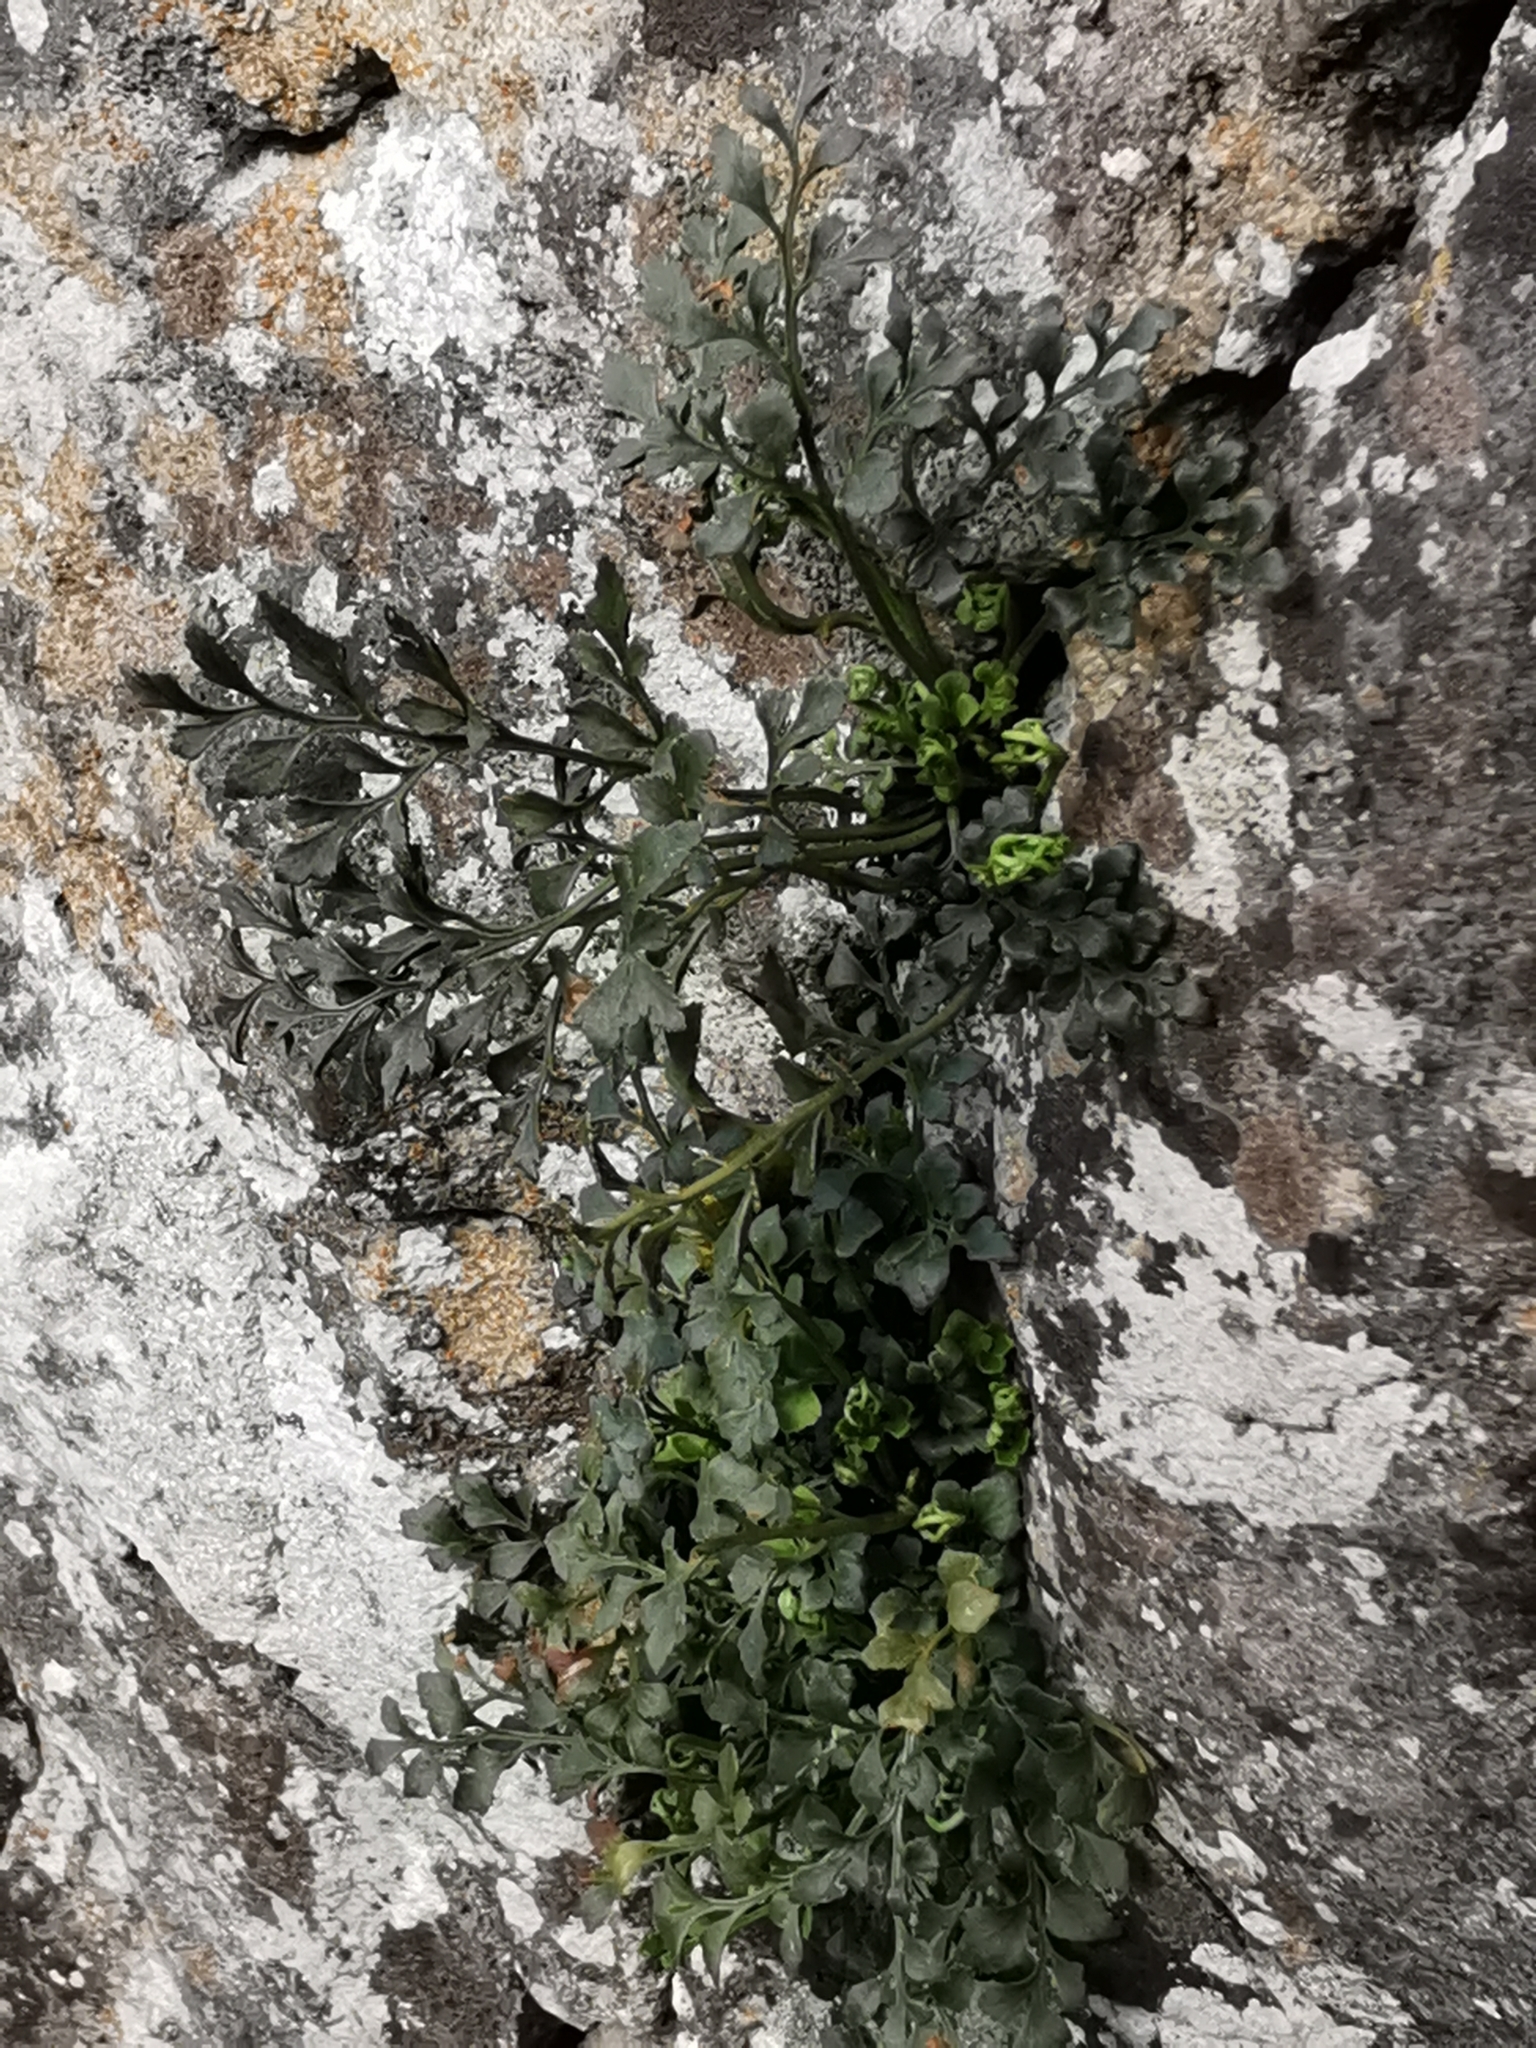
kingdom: Plantae
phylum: Tracheophyta
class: Polypodiopsida
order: Polypodiales
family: Aspleniaceae
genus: Asplenium
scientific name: Asplenium ruta-muraria
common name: Wall-rue
